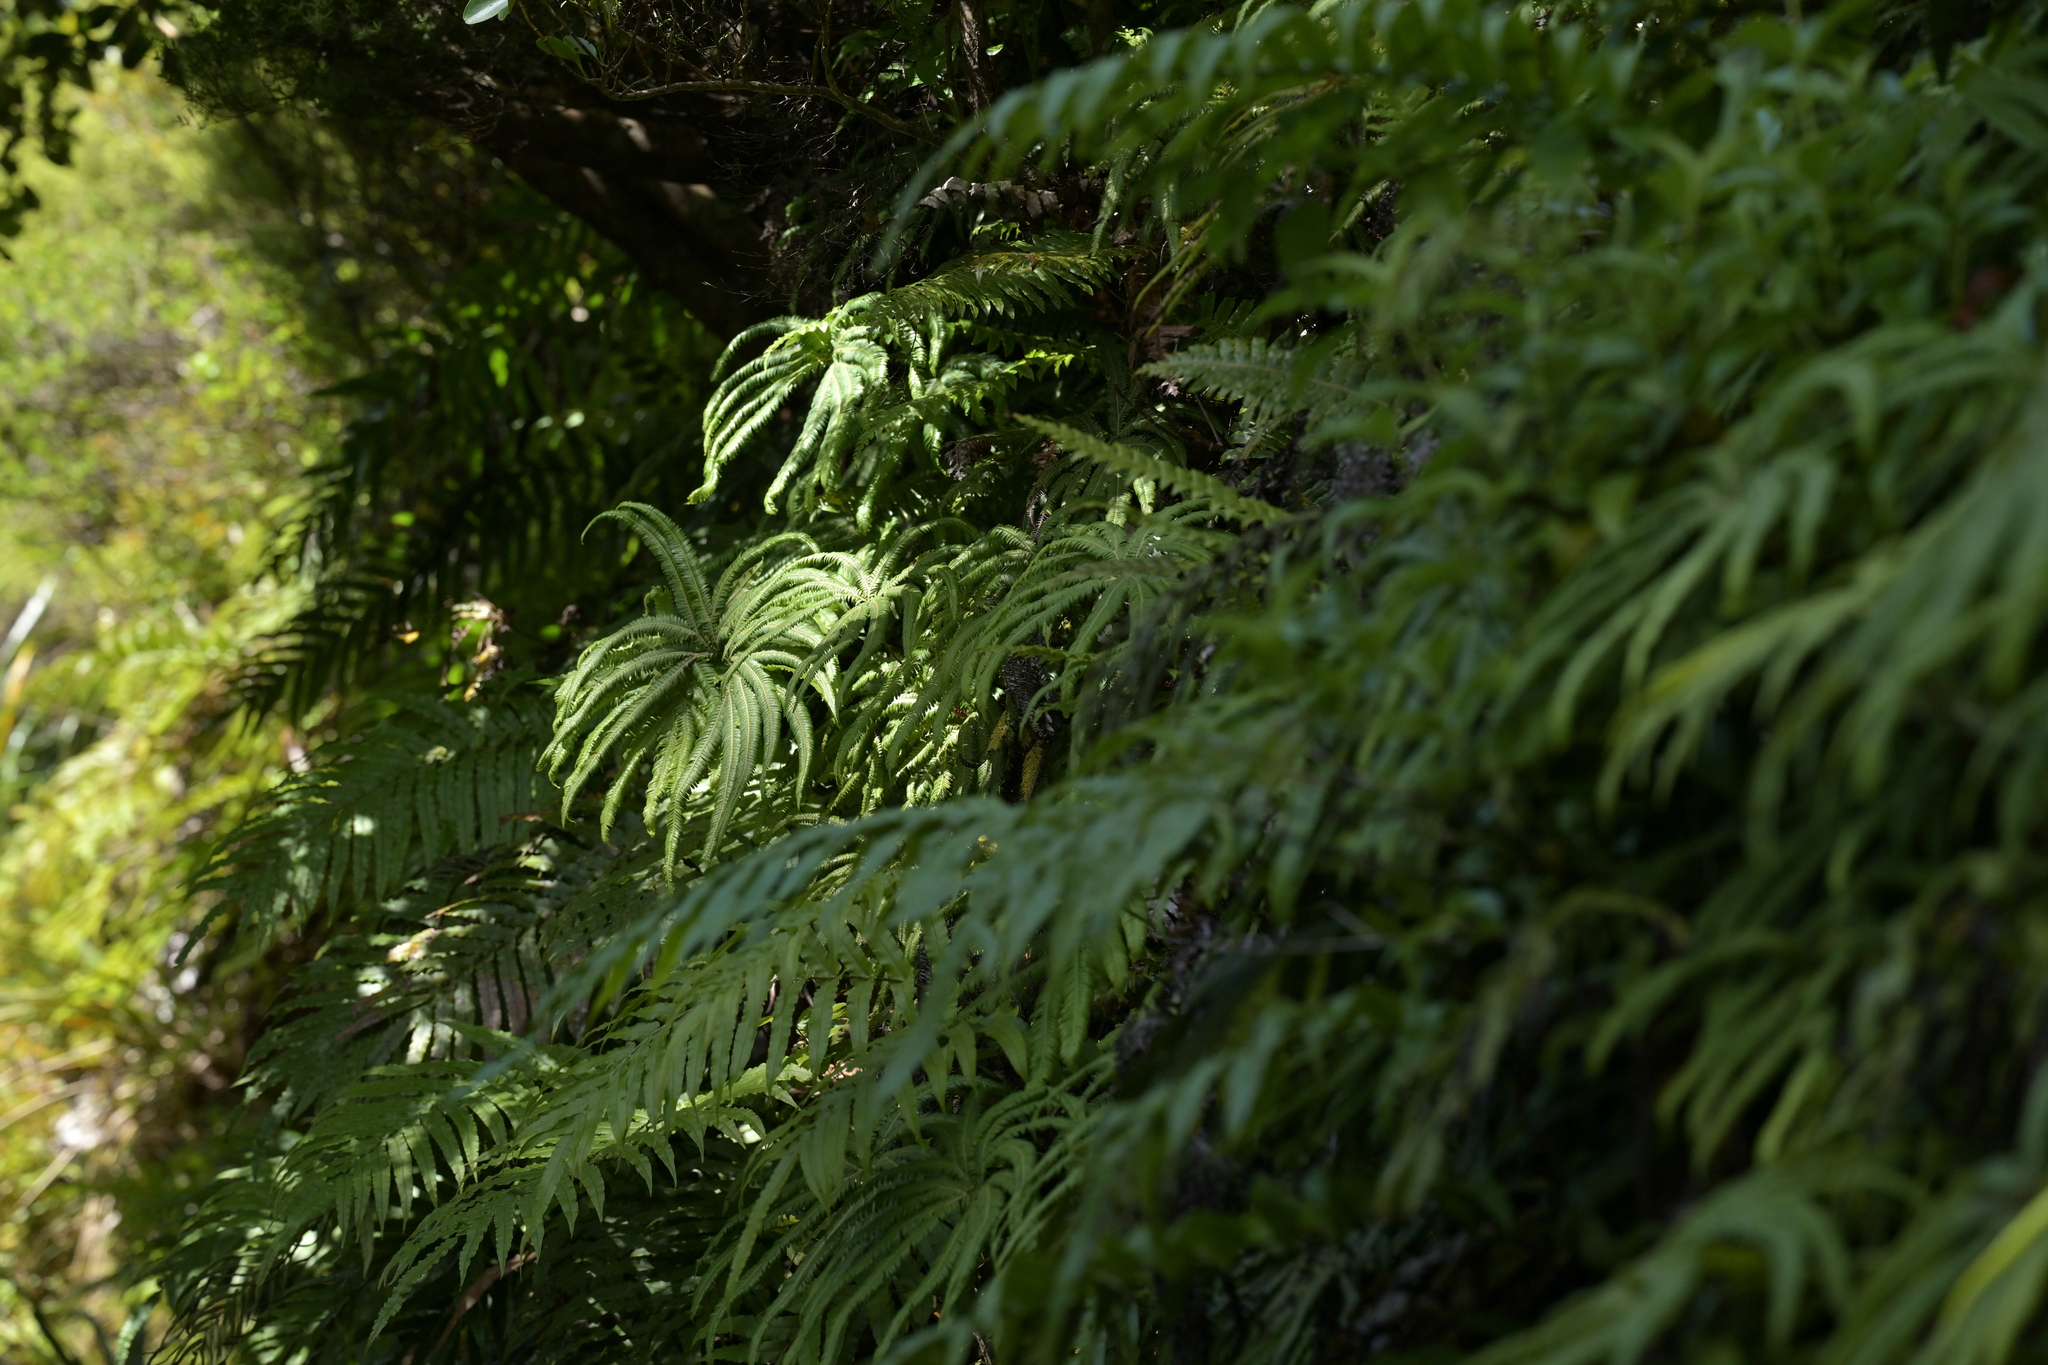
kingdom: Plantae
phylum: Tracheophyta
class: Polypodiopsida
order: Gleicheniales
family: Gleicheniaceae
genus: Sticherus
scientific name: Sticherus cunninghamii
